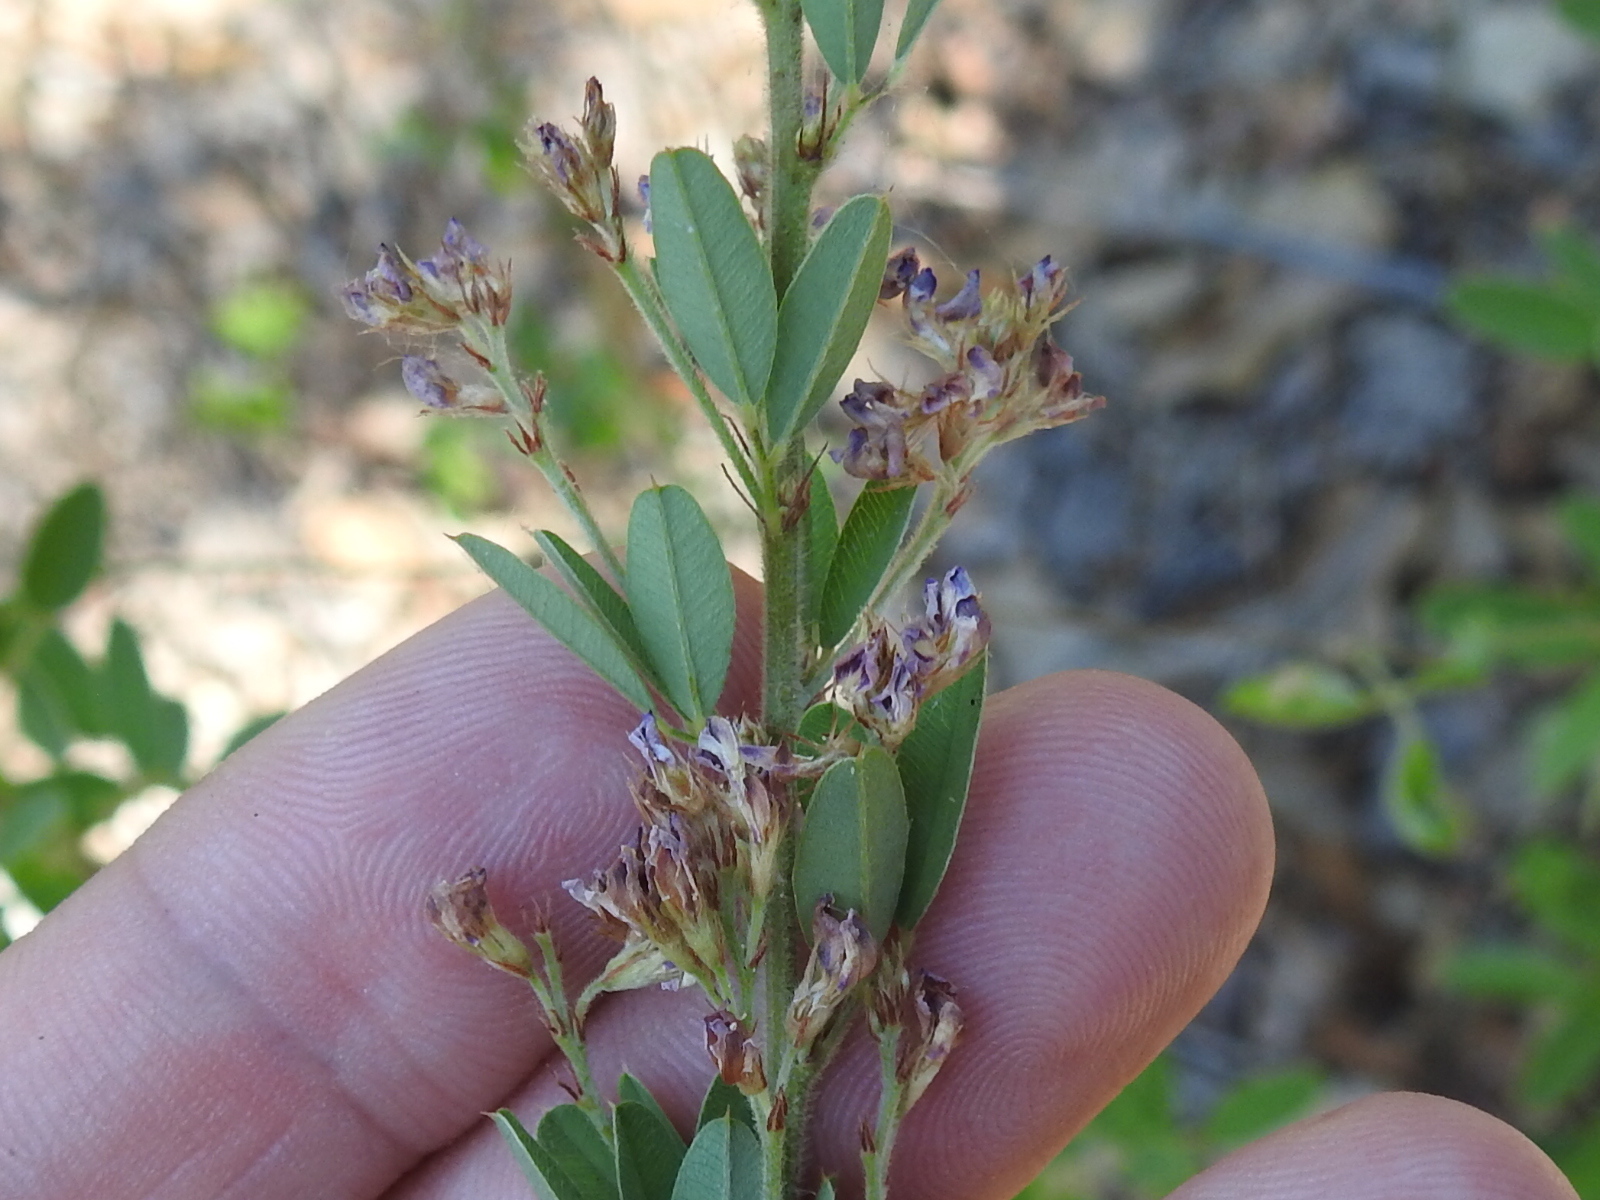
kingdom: Plantae
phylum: Tracheophyta
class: Magnoliopsida
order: Fabales
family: Fabaceae
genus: Lespedeza
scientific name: Lespedeza stuevei
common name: Tall bush-clover
